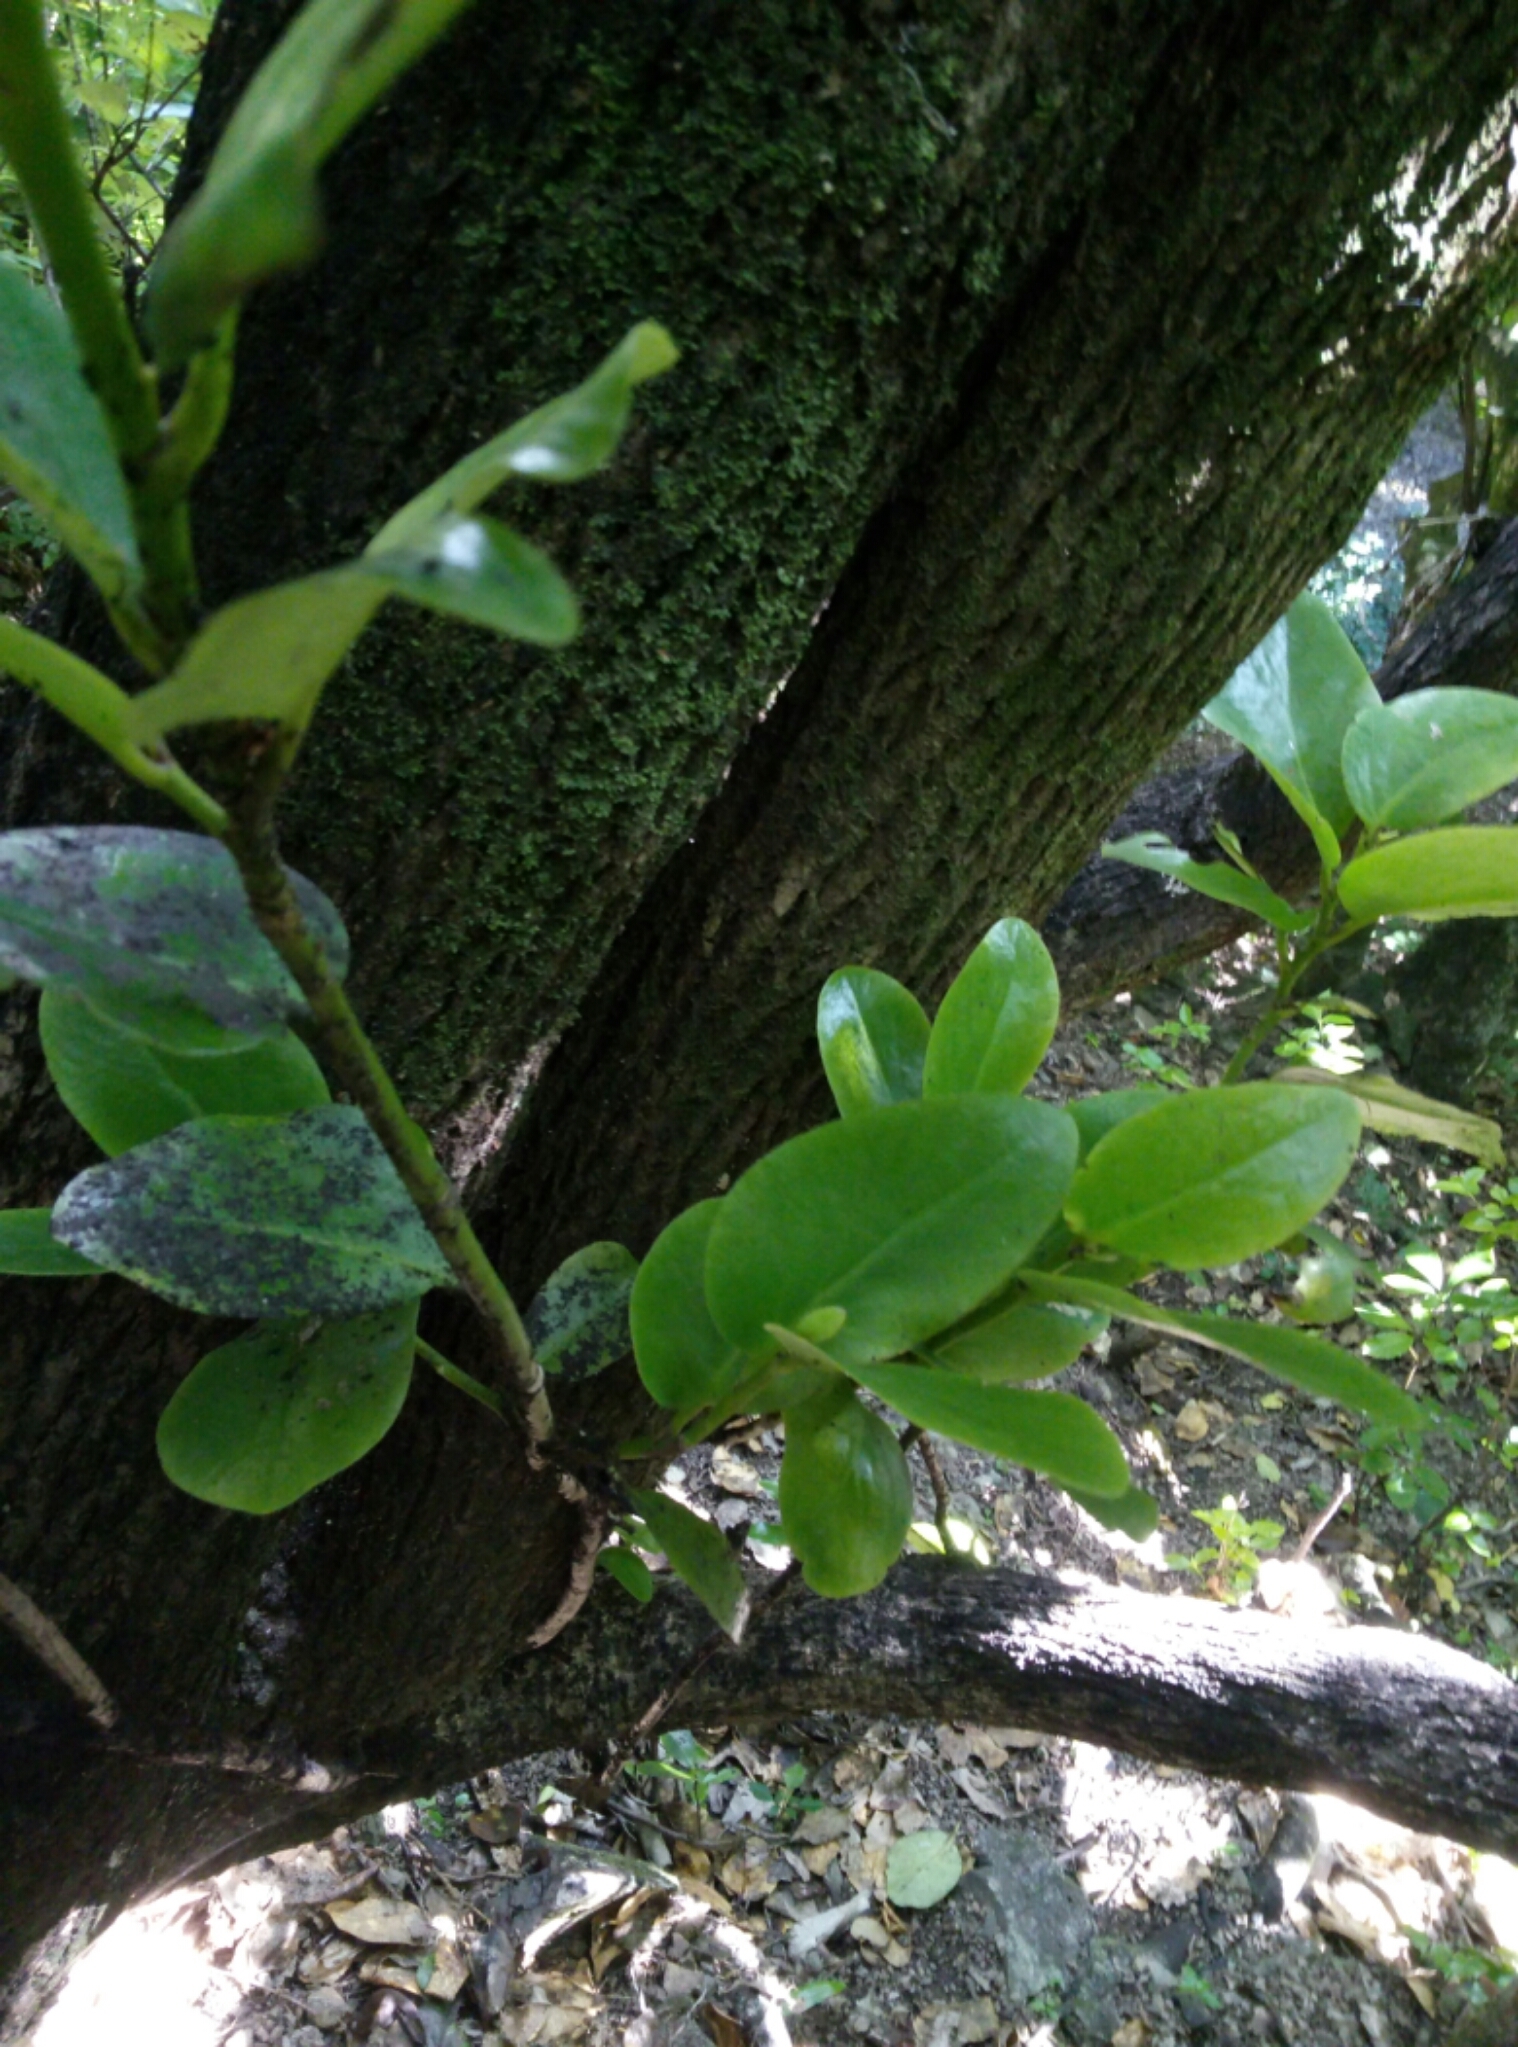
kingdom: Plantae
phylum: Tracheophyta
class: Magnoliopsida
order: Apiales
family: Griseliniaceae
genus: Griselinia
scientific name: Griselinia lucida
